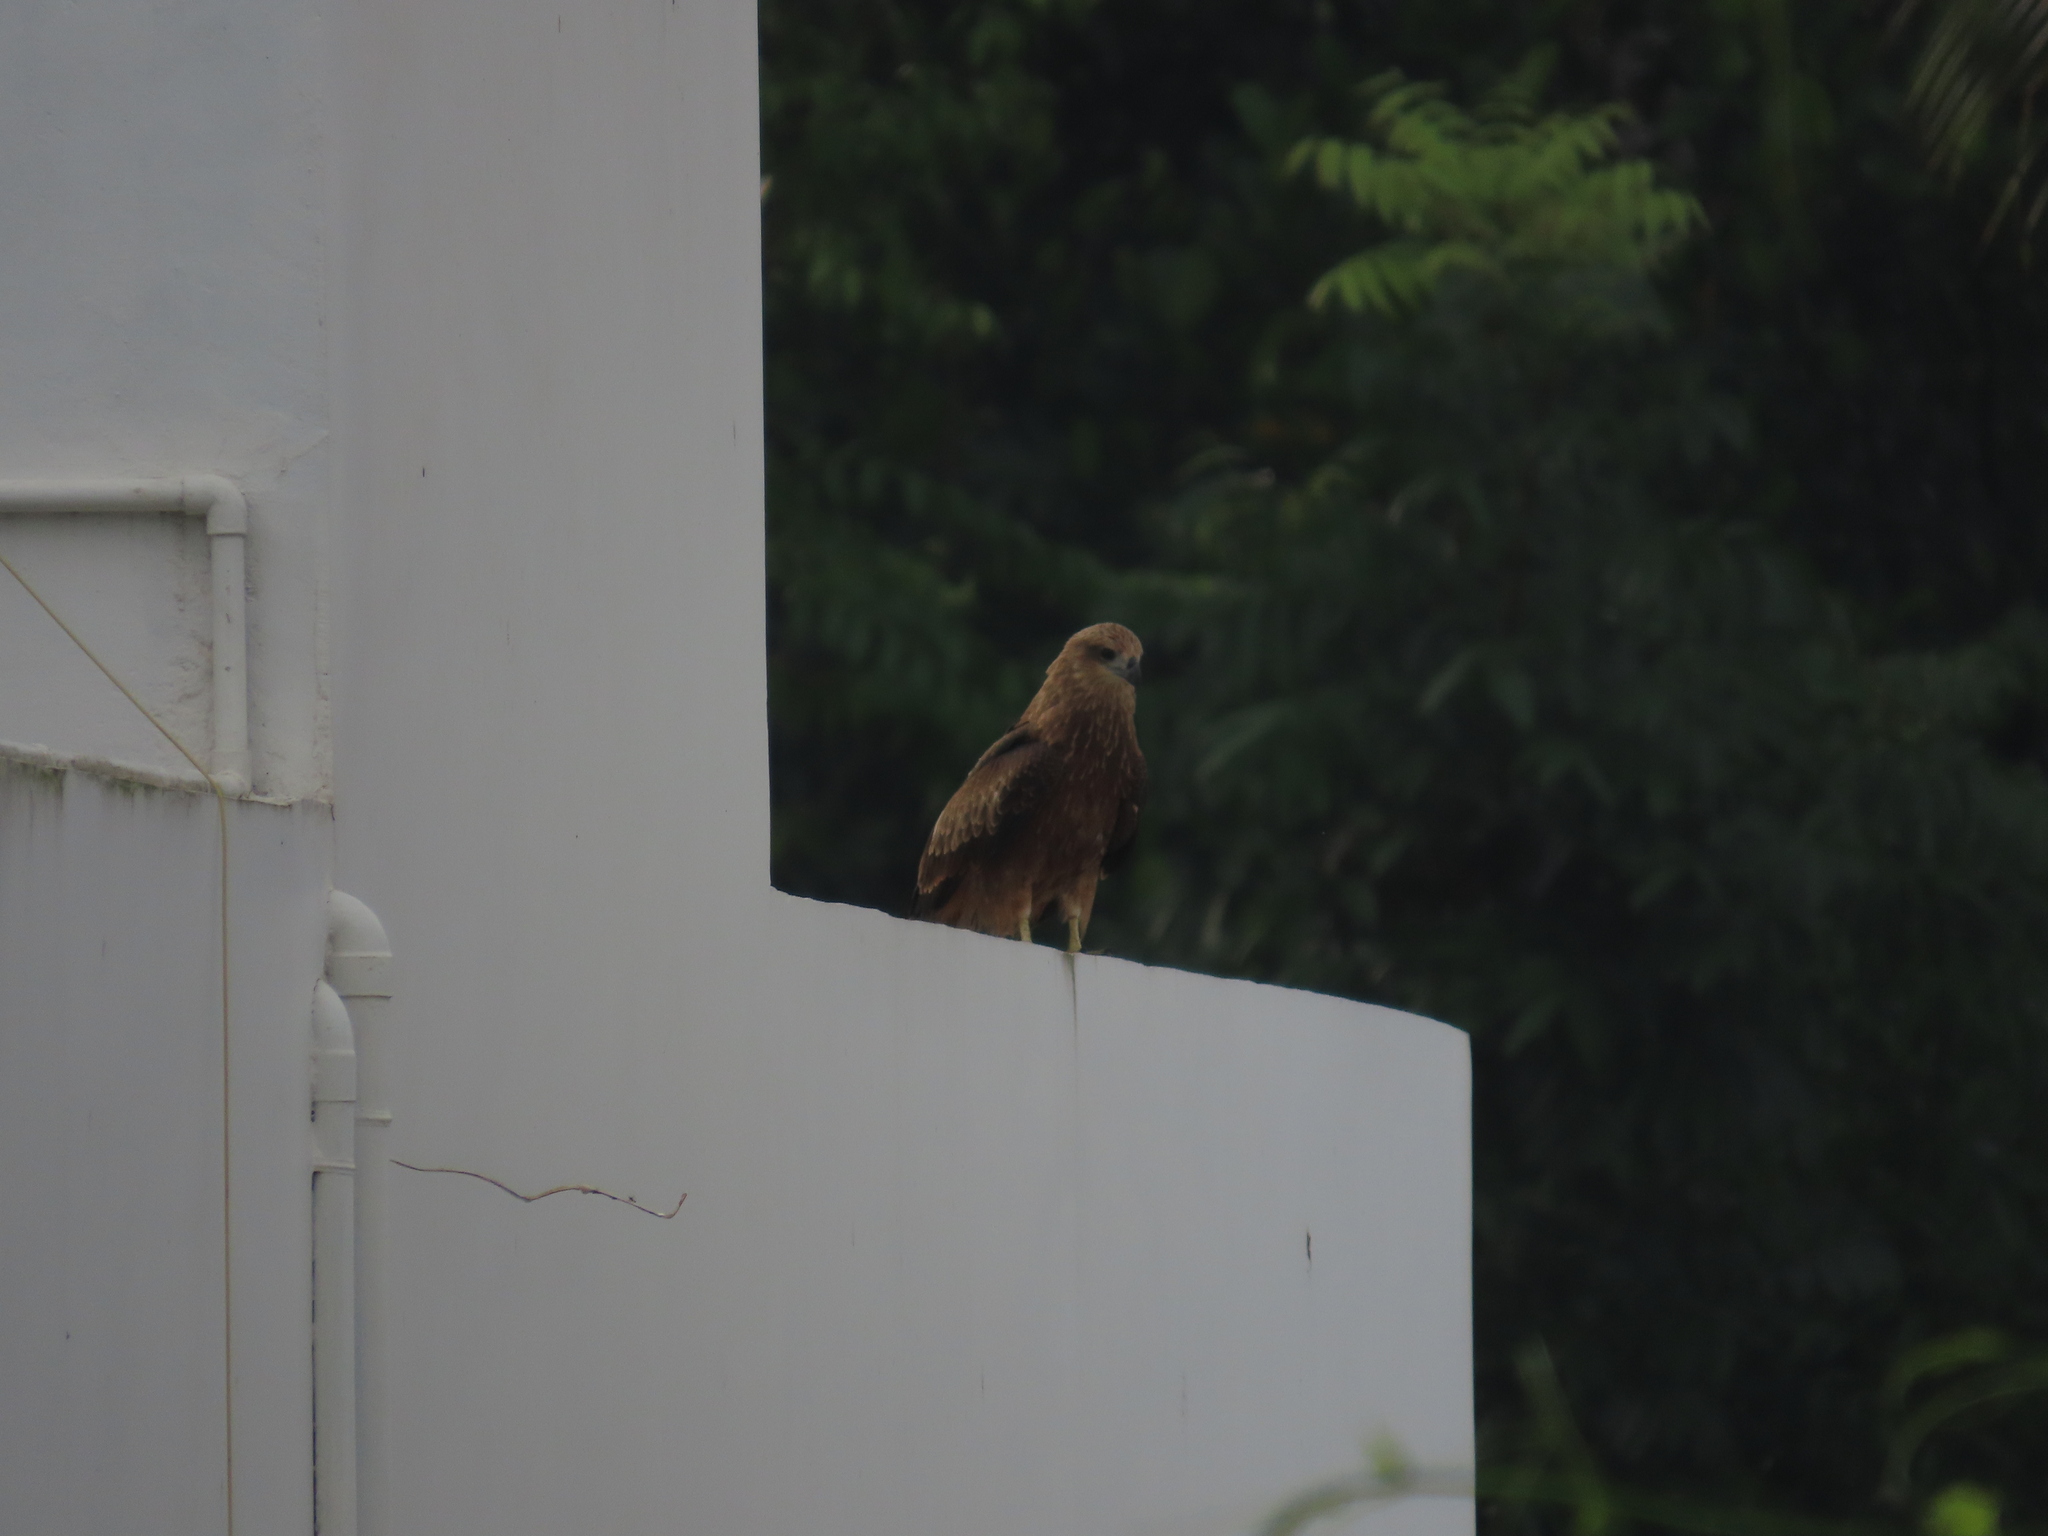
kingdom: Animalia
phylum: Chordata
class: Aves
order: Accipitriformes
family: Accipitridae
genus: Milvus
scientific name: Milvus migrans
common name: Black kite
